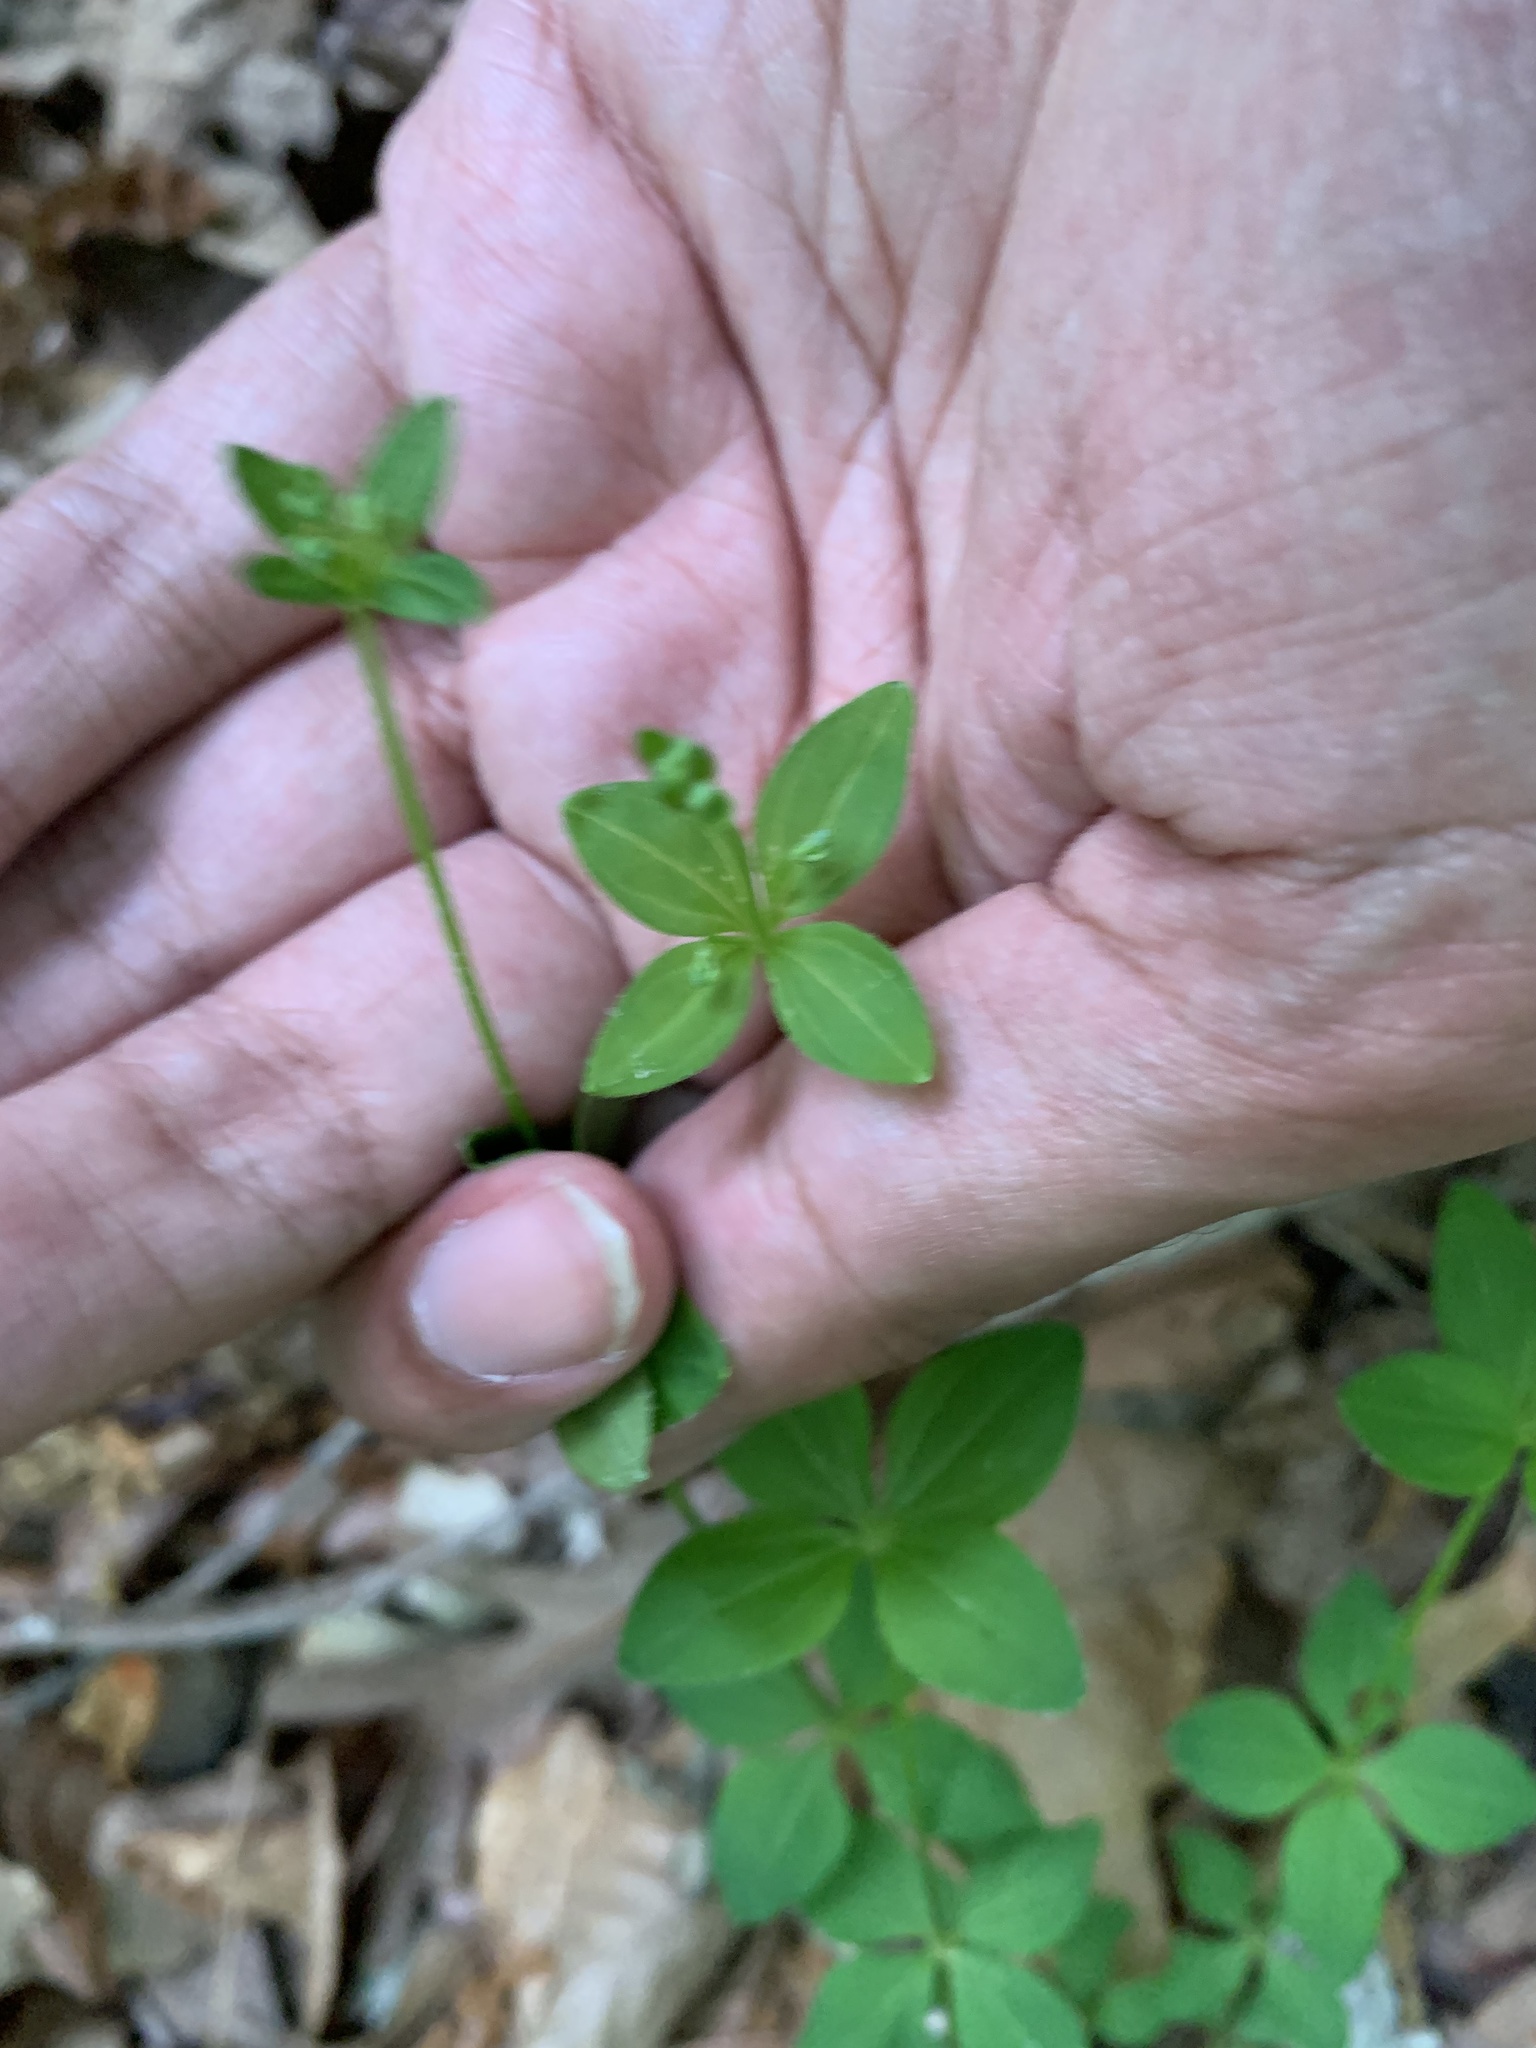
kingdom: Plantae
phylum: Tracheophyta
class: Magnoliopsida
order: Gentianales
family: Rubiaceae
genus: Galium
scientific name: Galium circaezans
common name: Forest bedstraw
